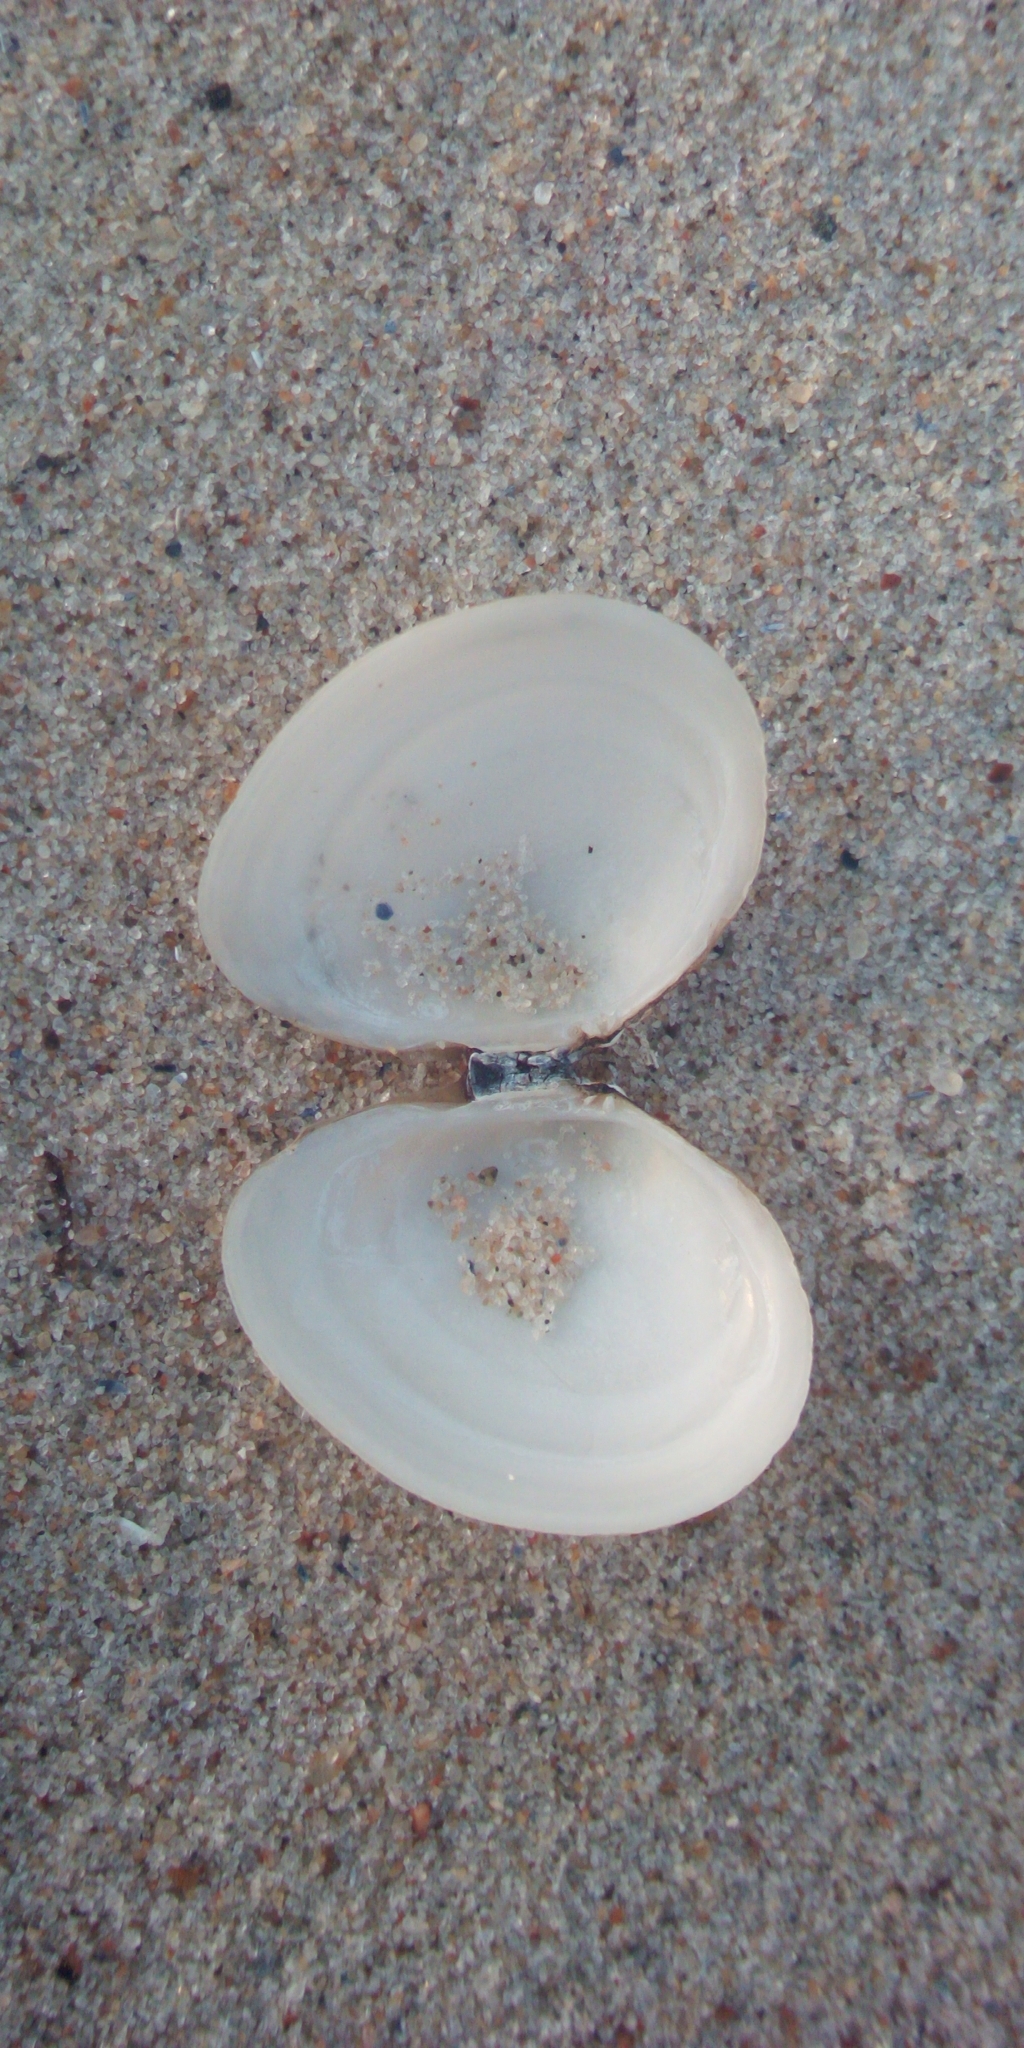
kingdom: Animalia
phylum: Mollusca
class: Bivalvia
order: Cardiida
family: Tellinidae
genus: Macoma
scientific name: Macoma balthica
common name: Baltic tellin
